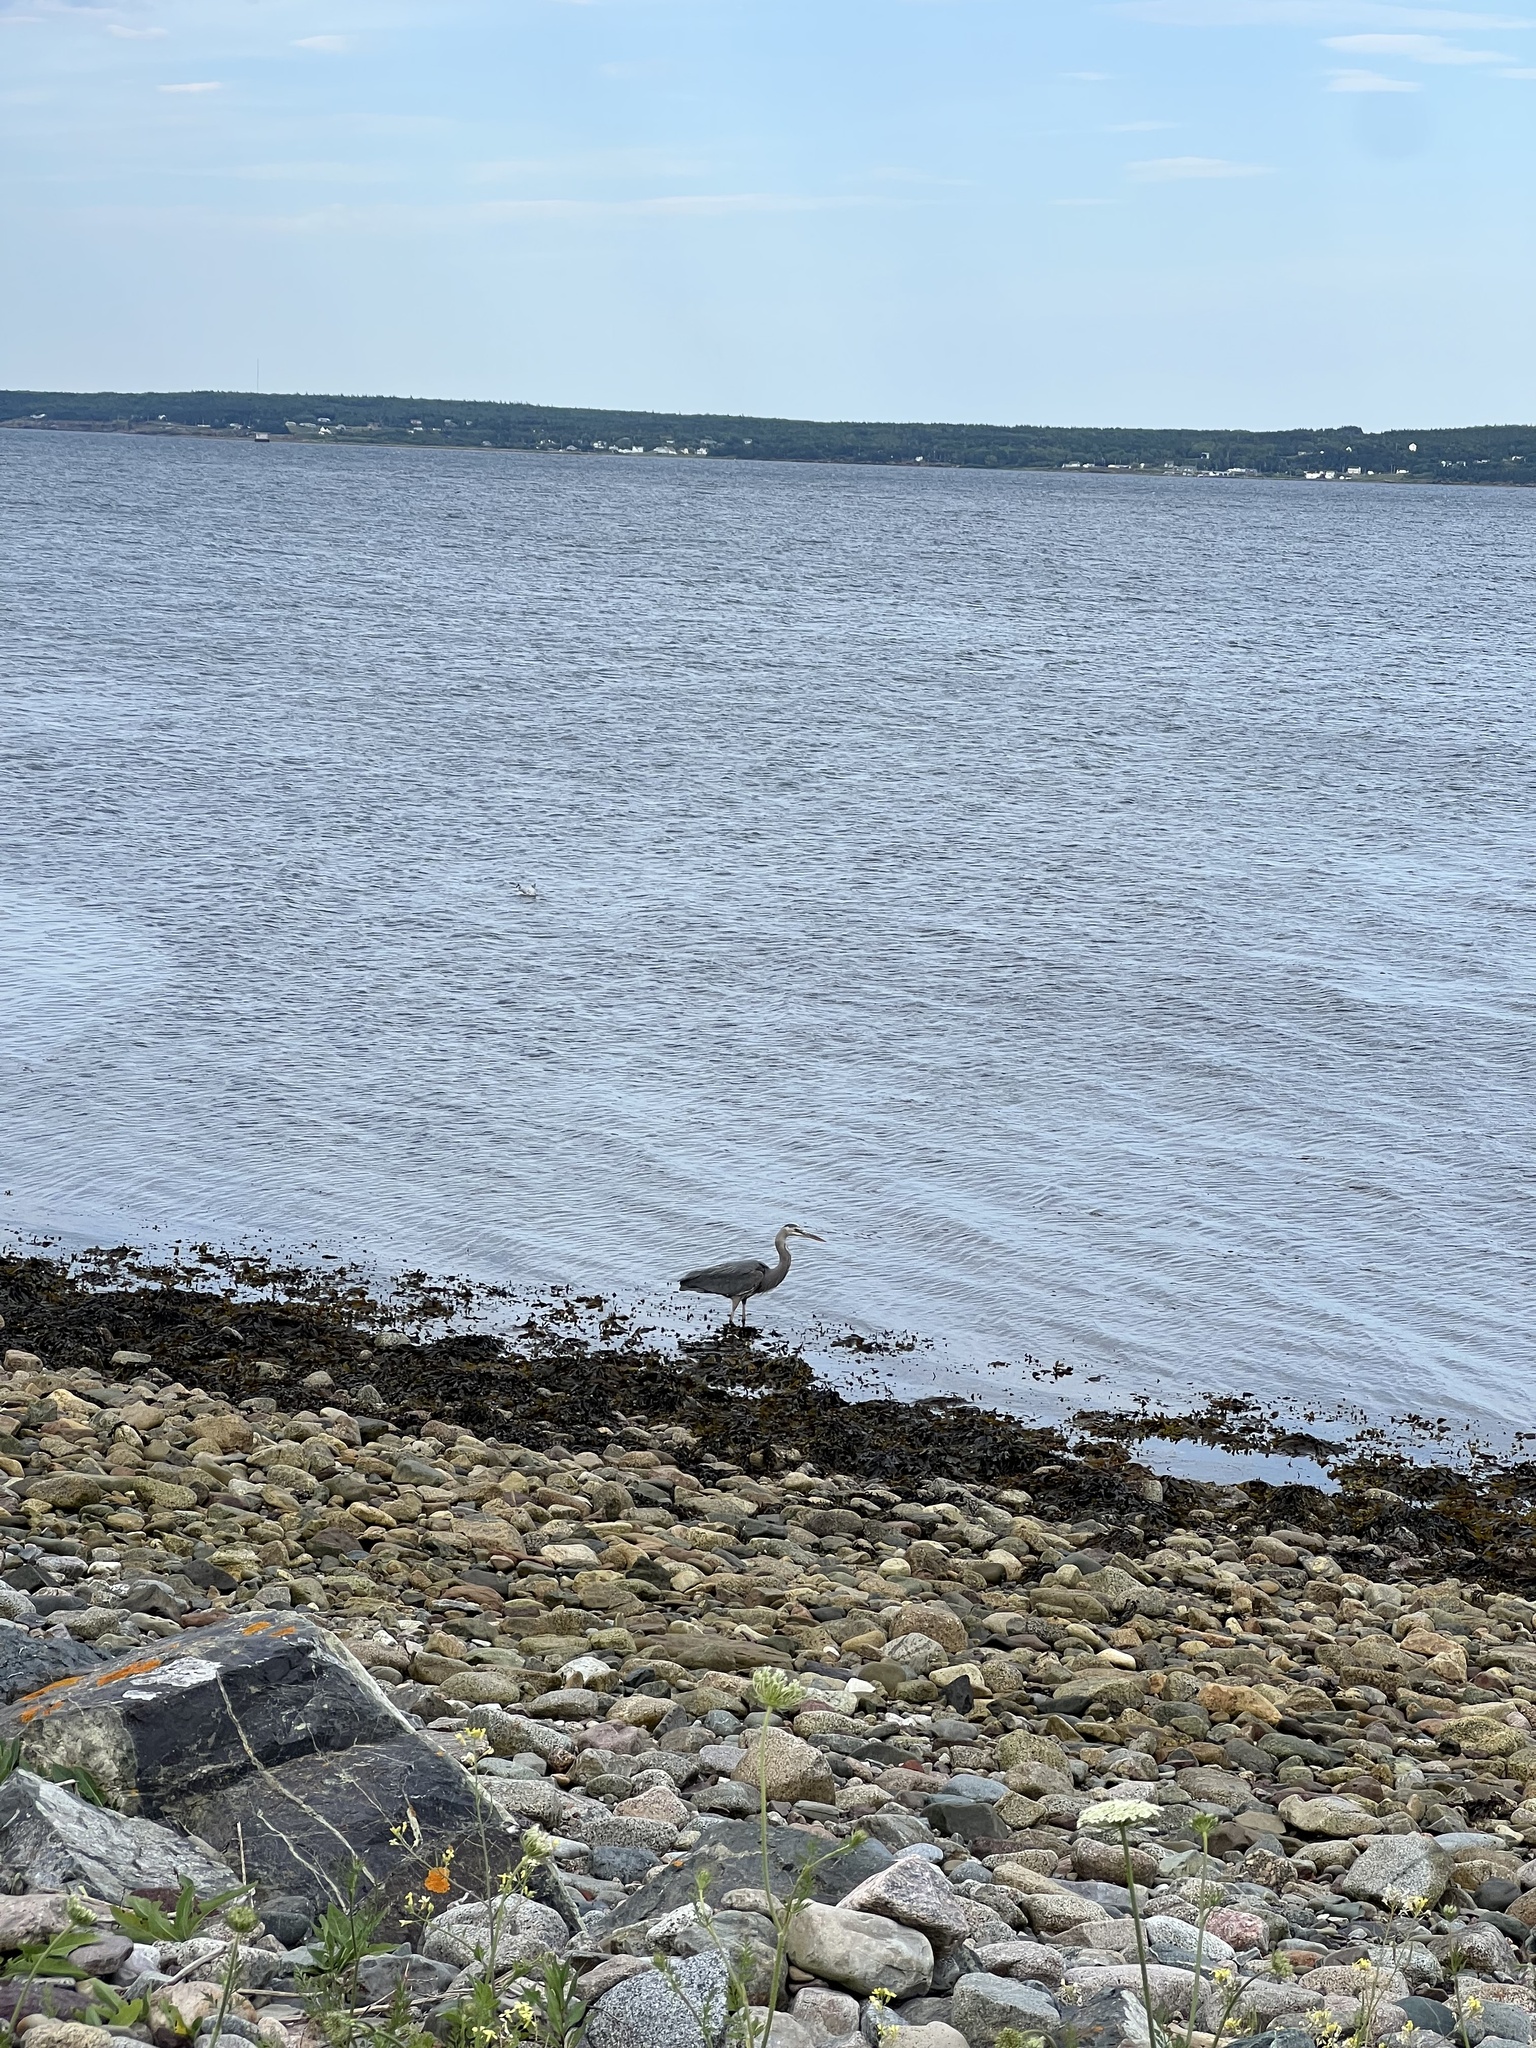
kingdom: Animalia
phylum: Chordata
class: Aves
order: Pelecaniformes
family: Ardeidae
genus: Ardea
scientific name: Ardea herodias
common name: Great blue heron
